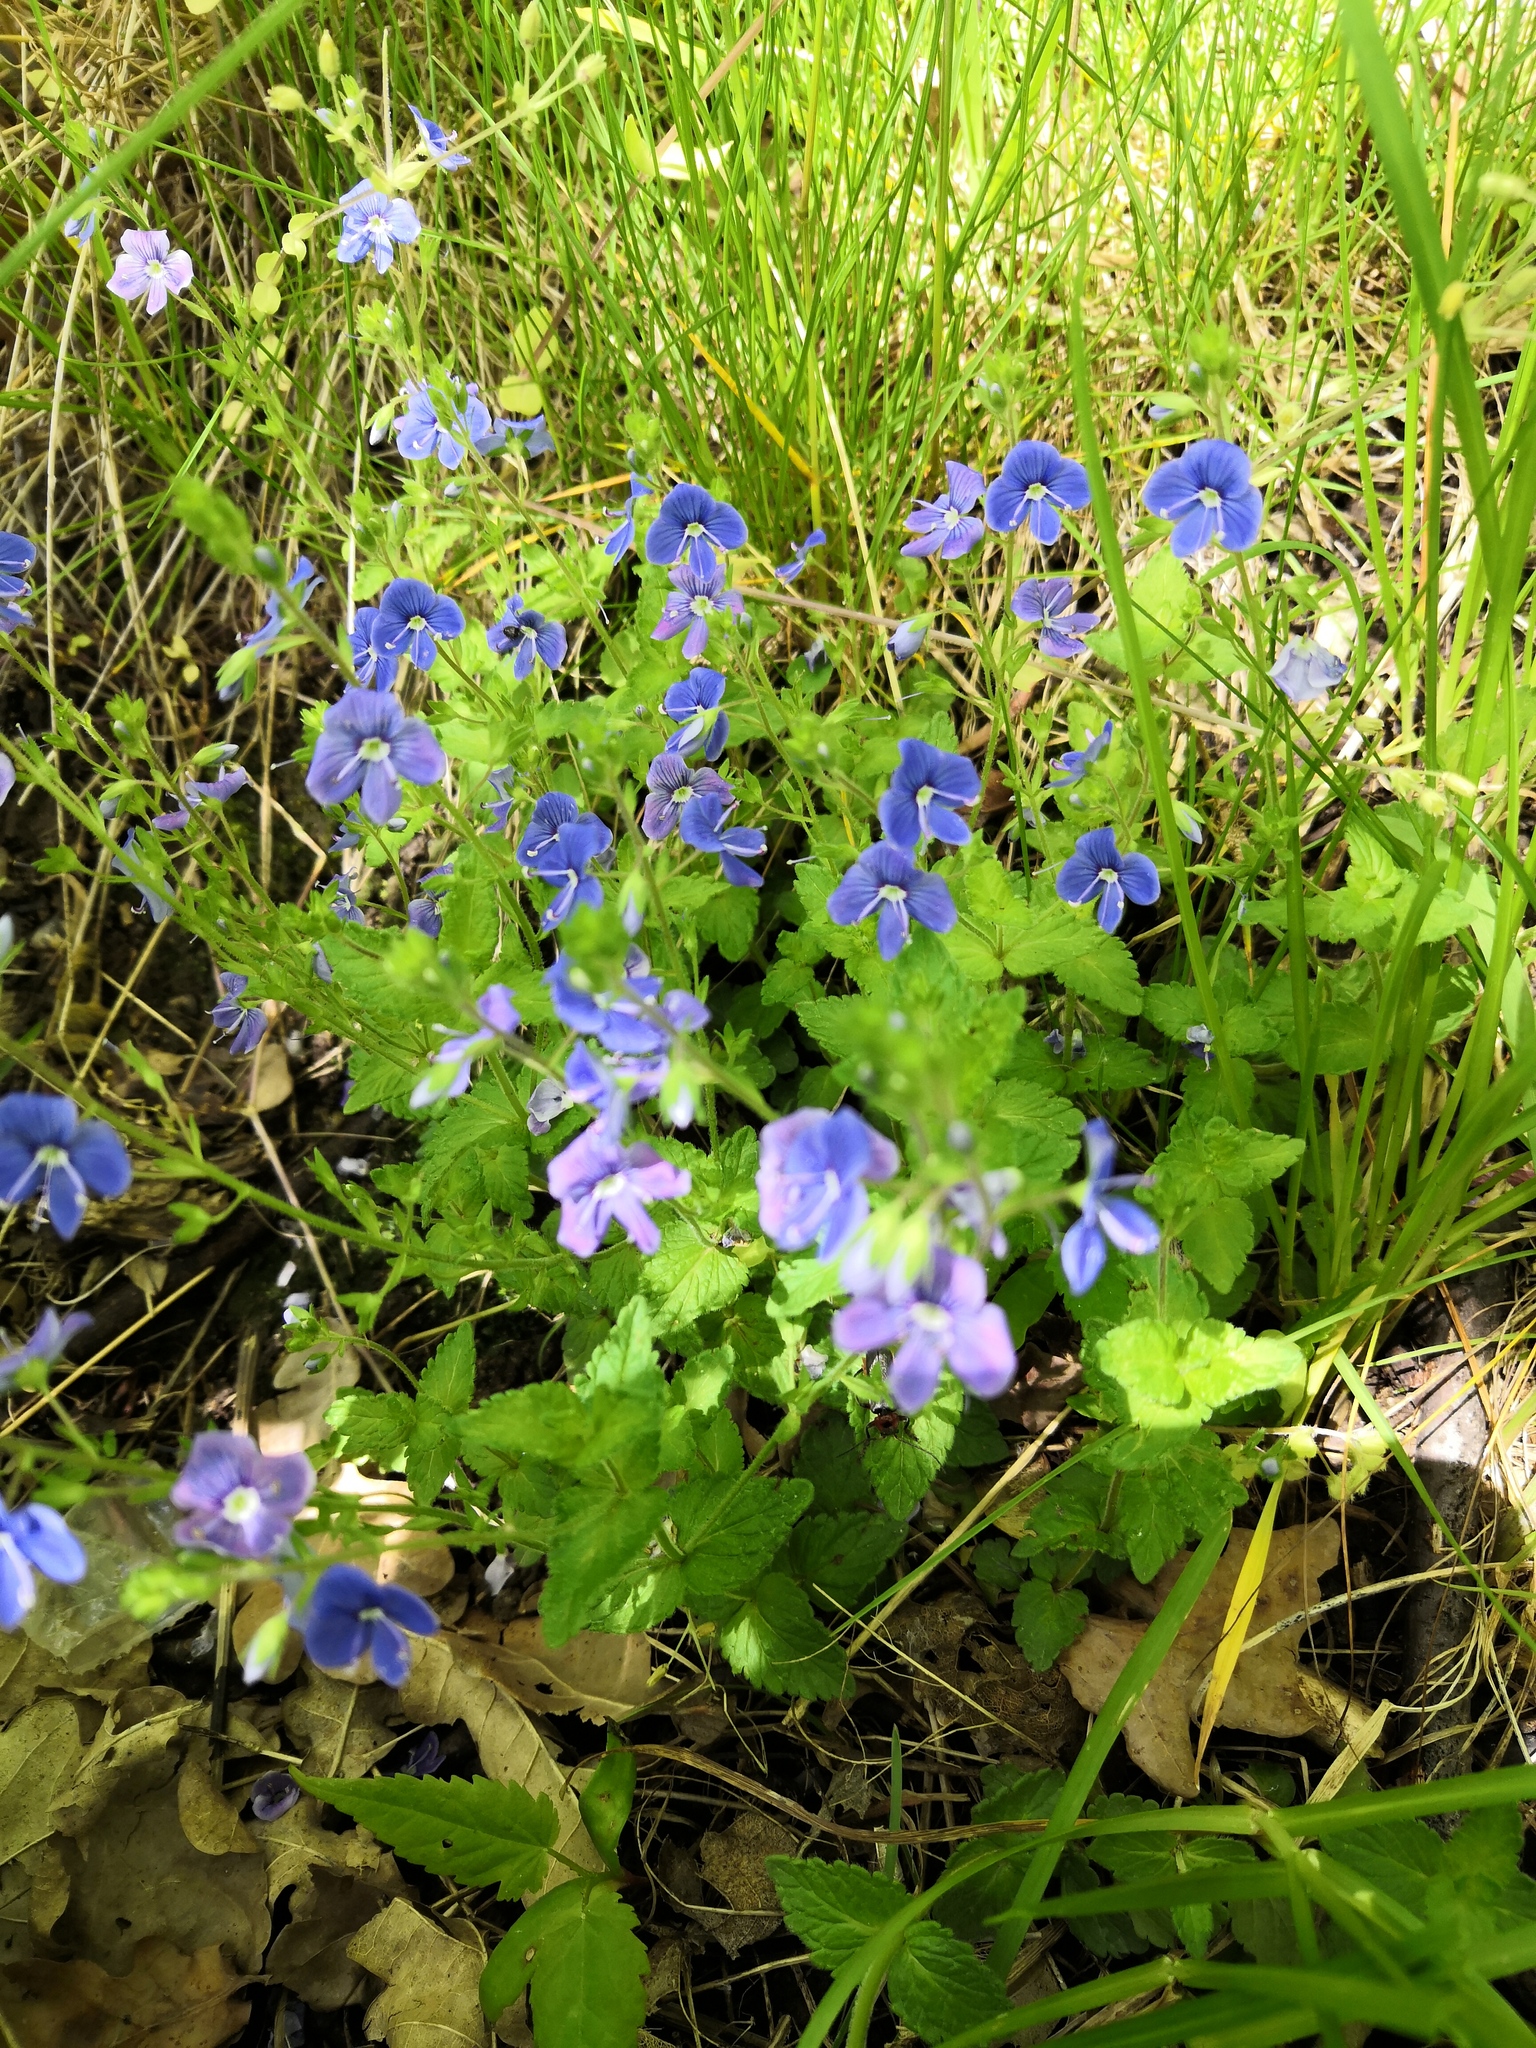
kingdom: Plantae
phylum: Tracheophyta
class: Magnoliopsida
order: Lamiales
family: Plantaginaceae
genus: Veronica
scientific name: Veronica chamaedrys
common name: Germander speedwell
